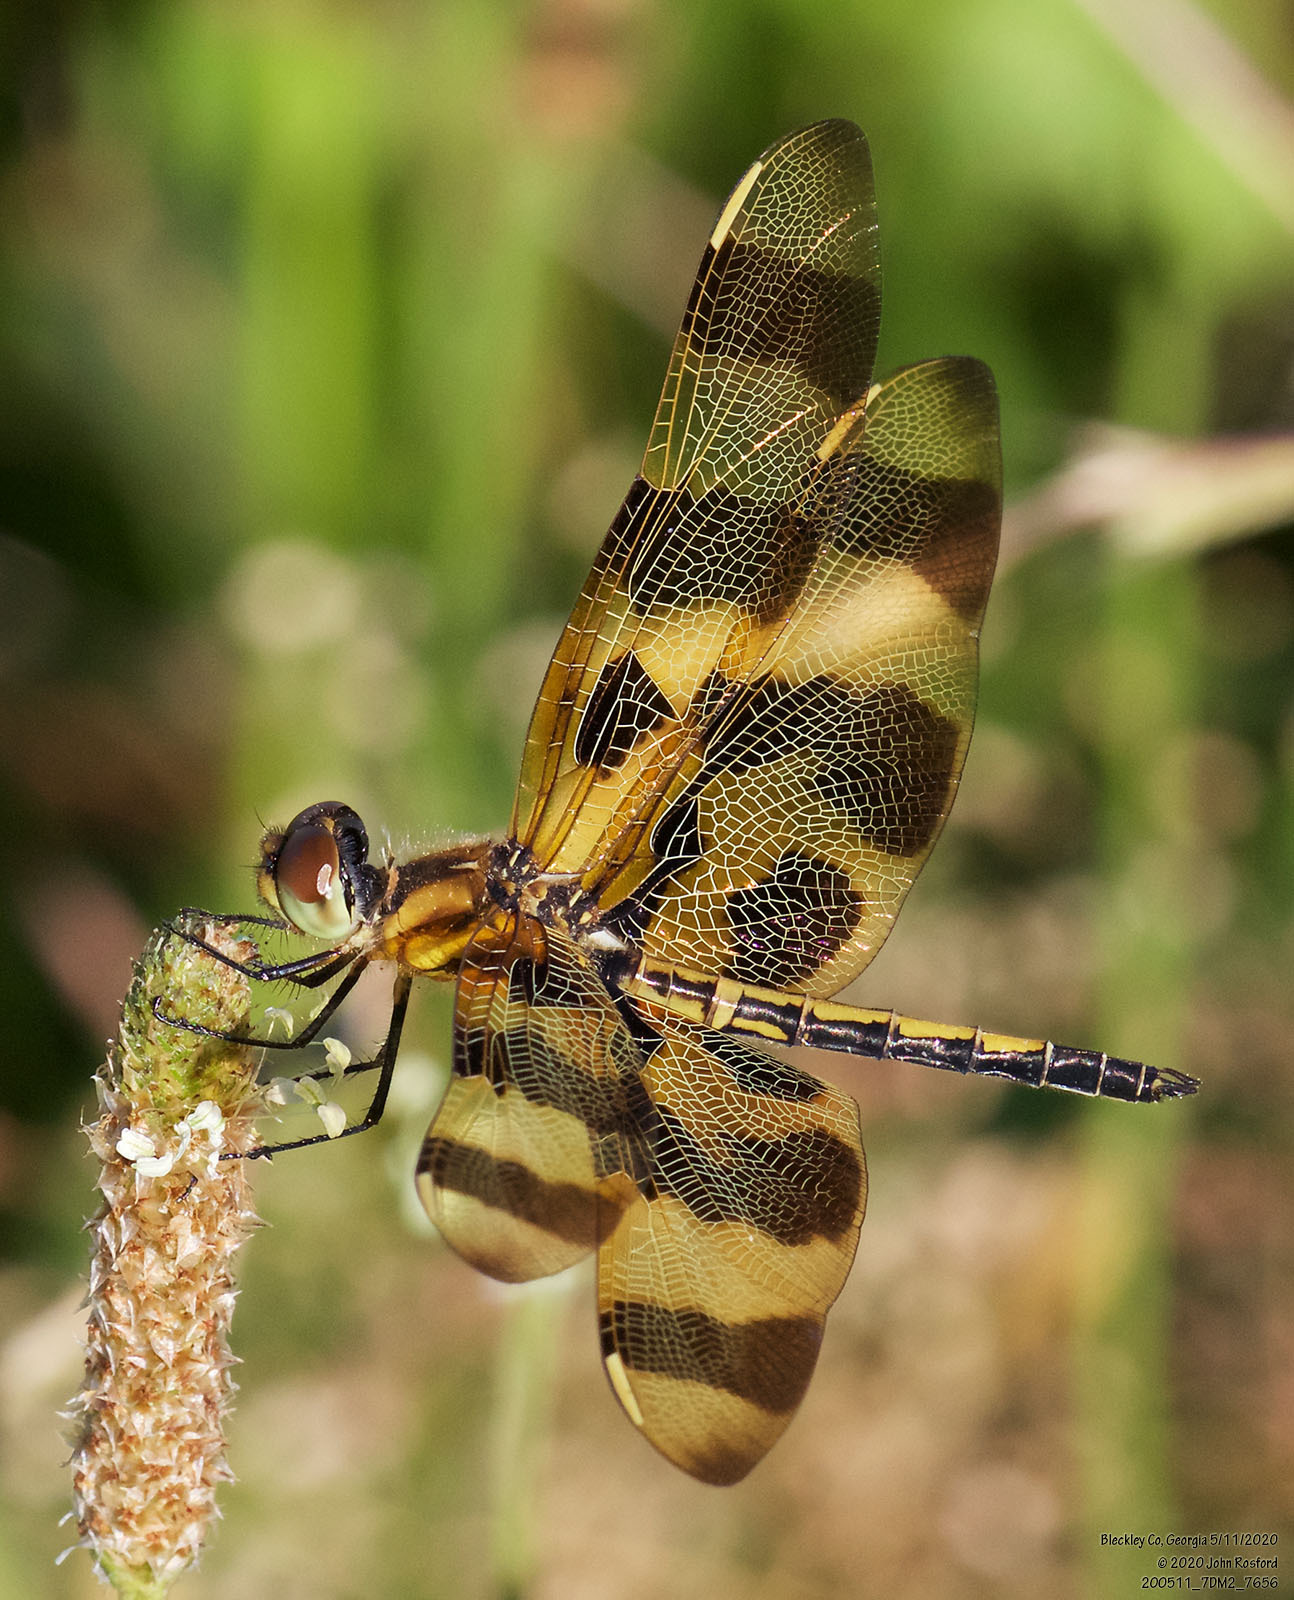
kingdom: Animalia
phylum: Arthropoda
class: Insecta
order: Odonata
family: Libellulidae
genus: Celithemis
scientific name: Celithemis eponina
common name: Halloween pennant
